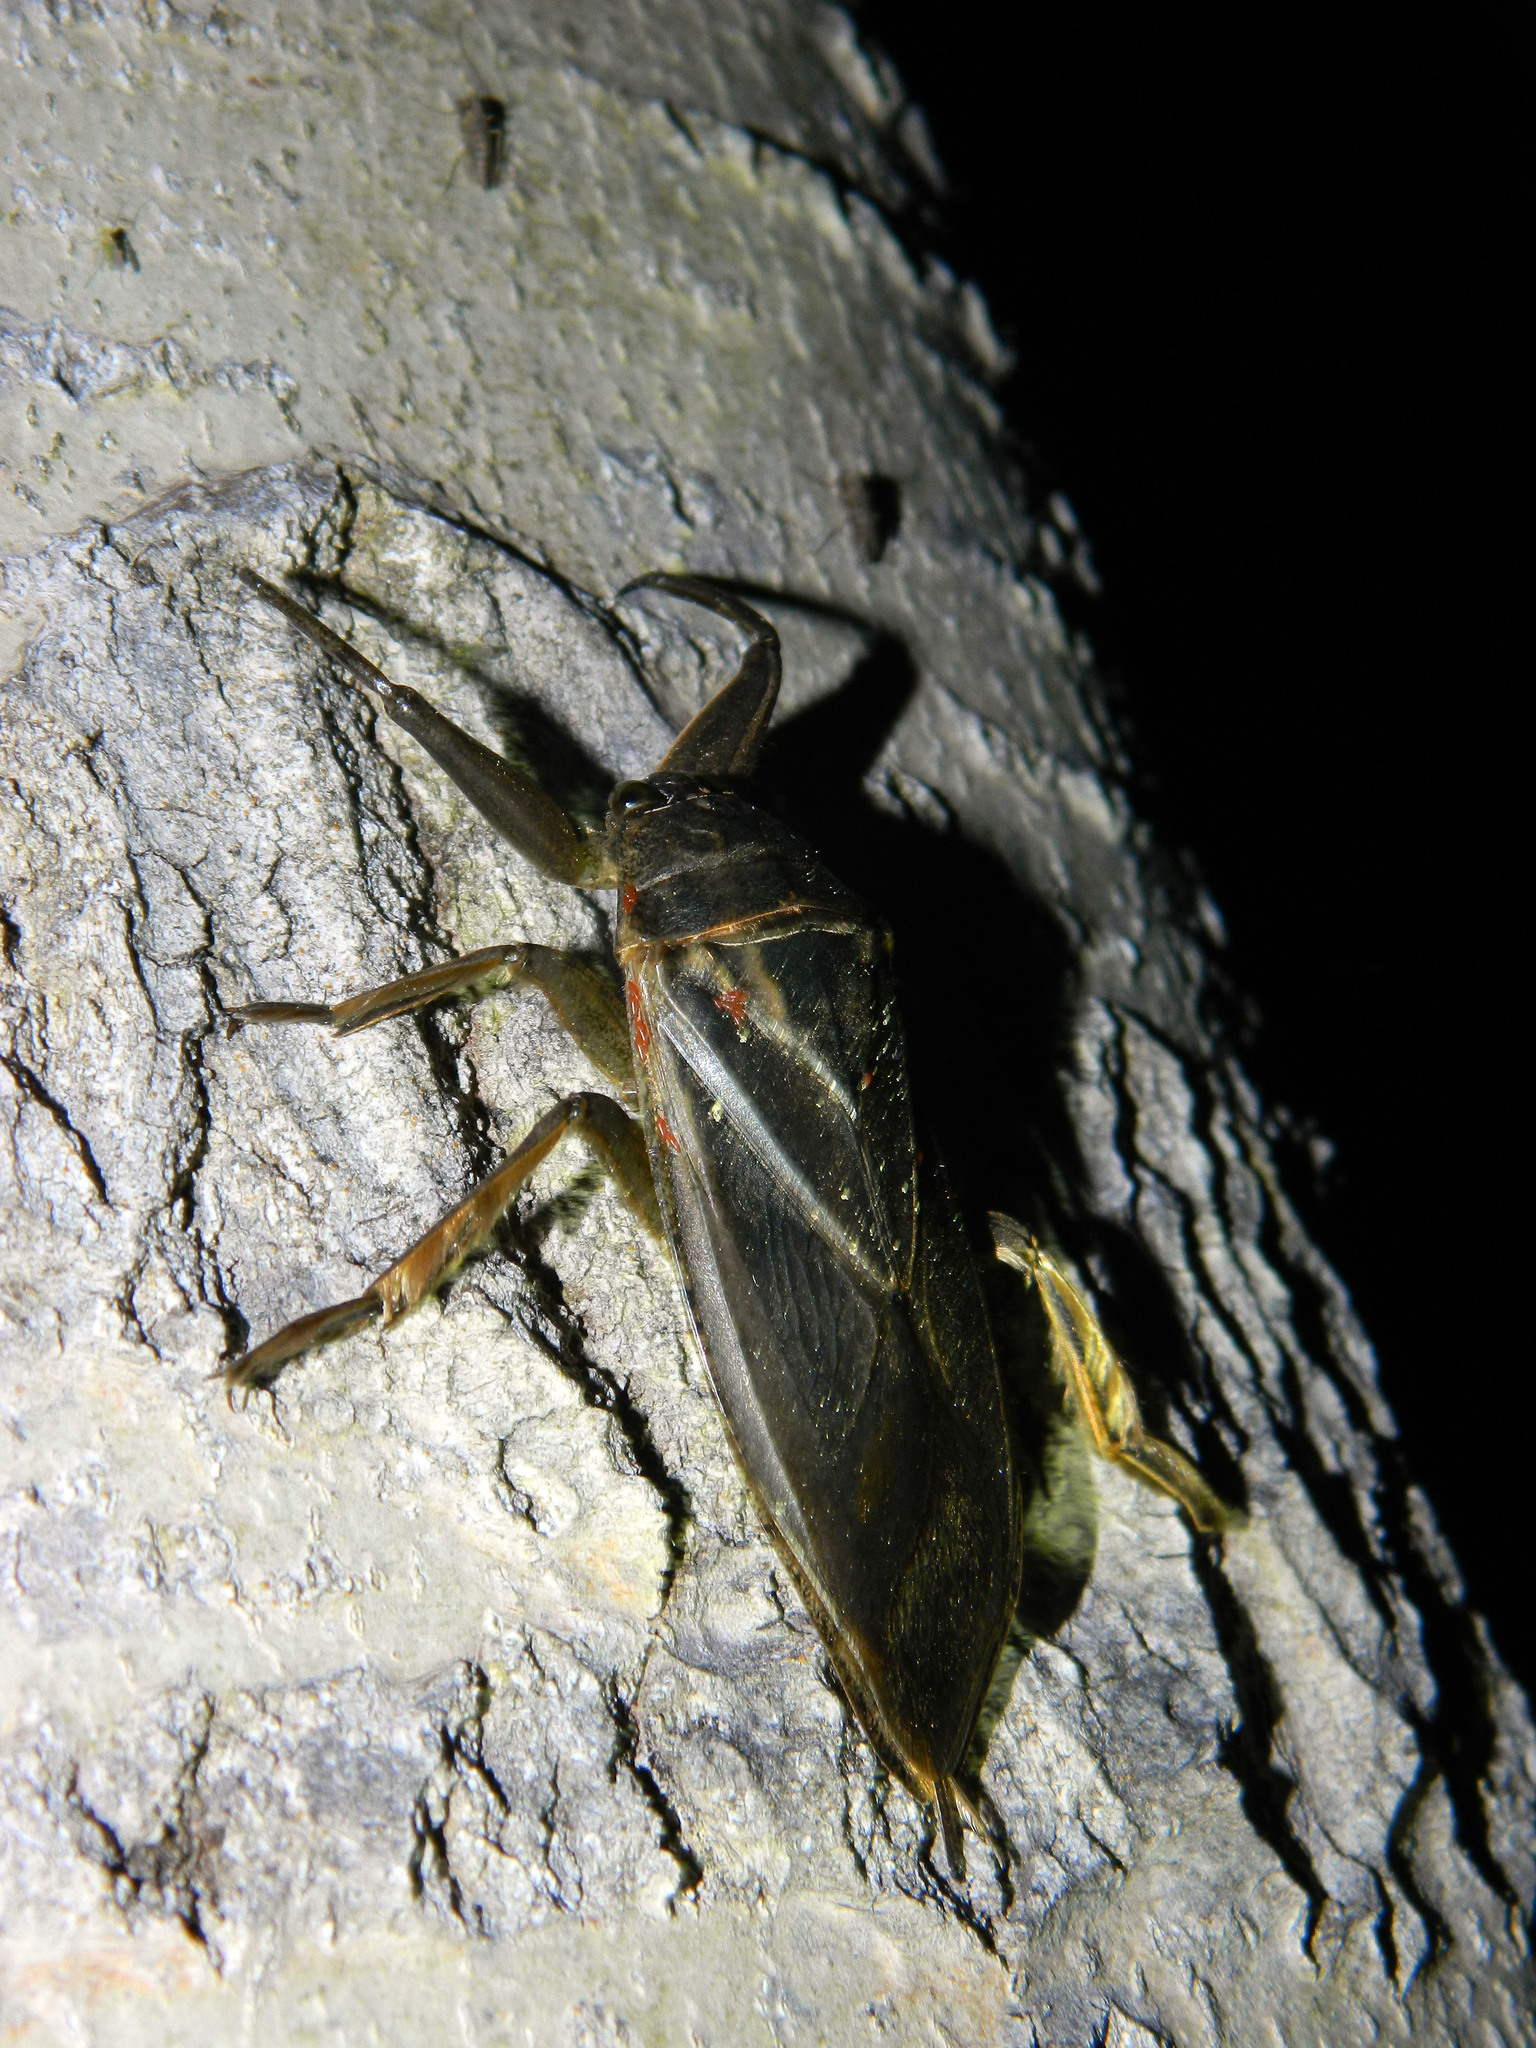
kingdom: Animalia
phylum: Arthropoda
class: Insecta
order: Hemiptera
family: Belostomatidae
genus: Lethocerus
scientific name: Lethocerus americanus
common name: Giant water bug
